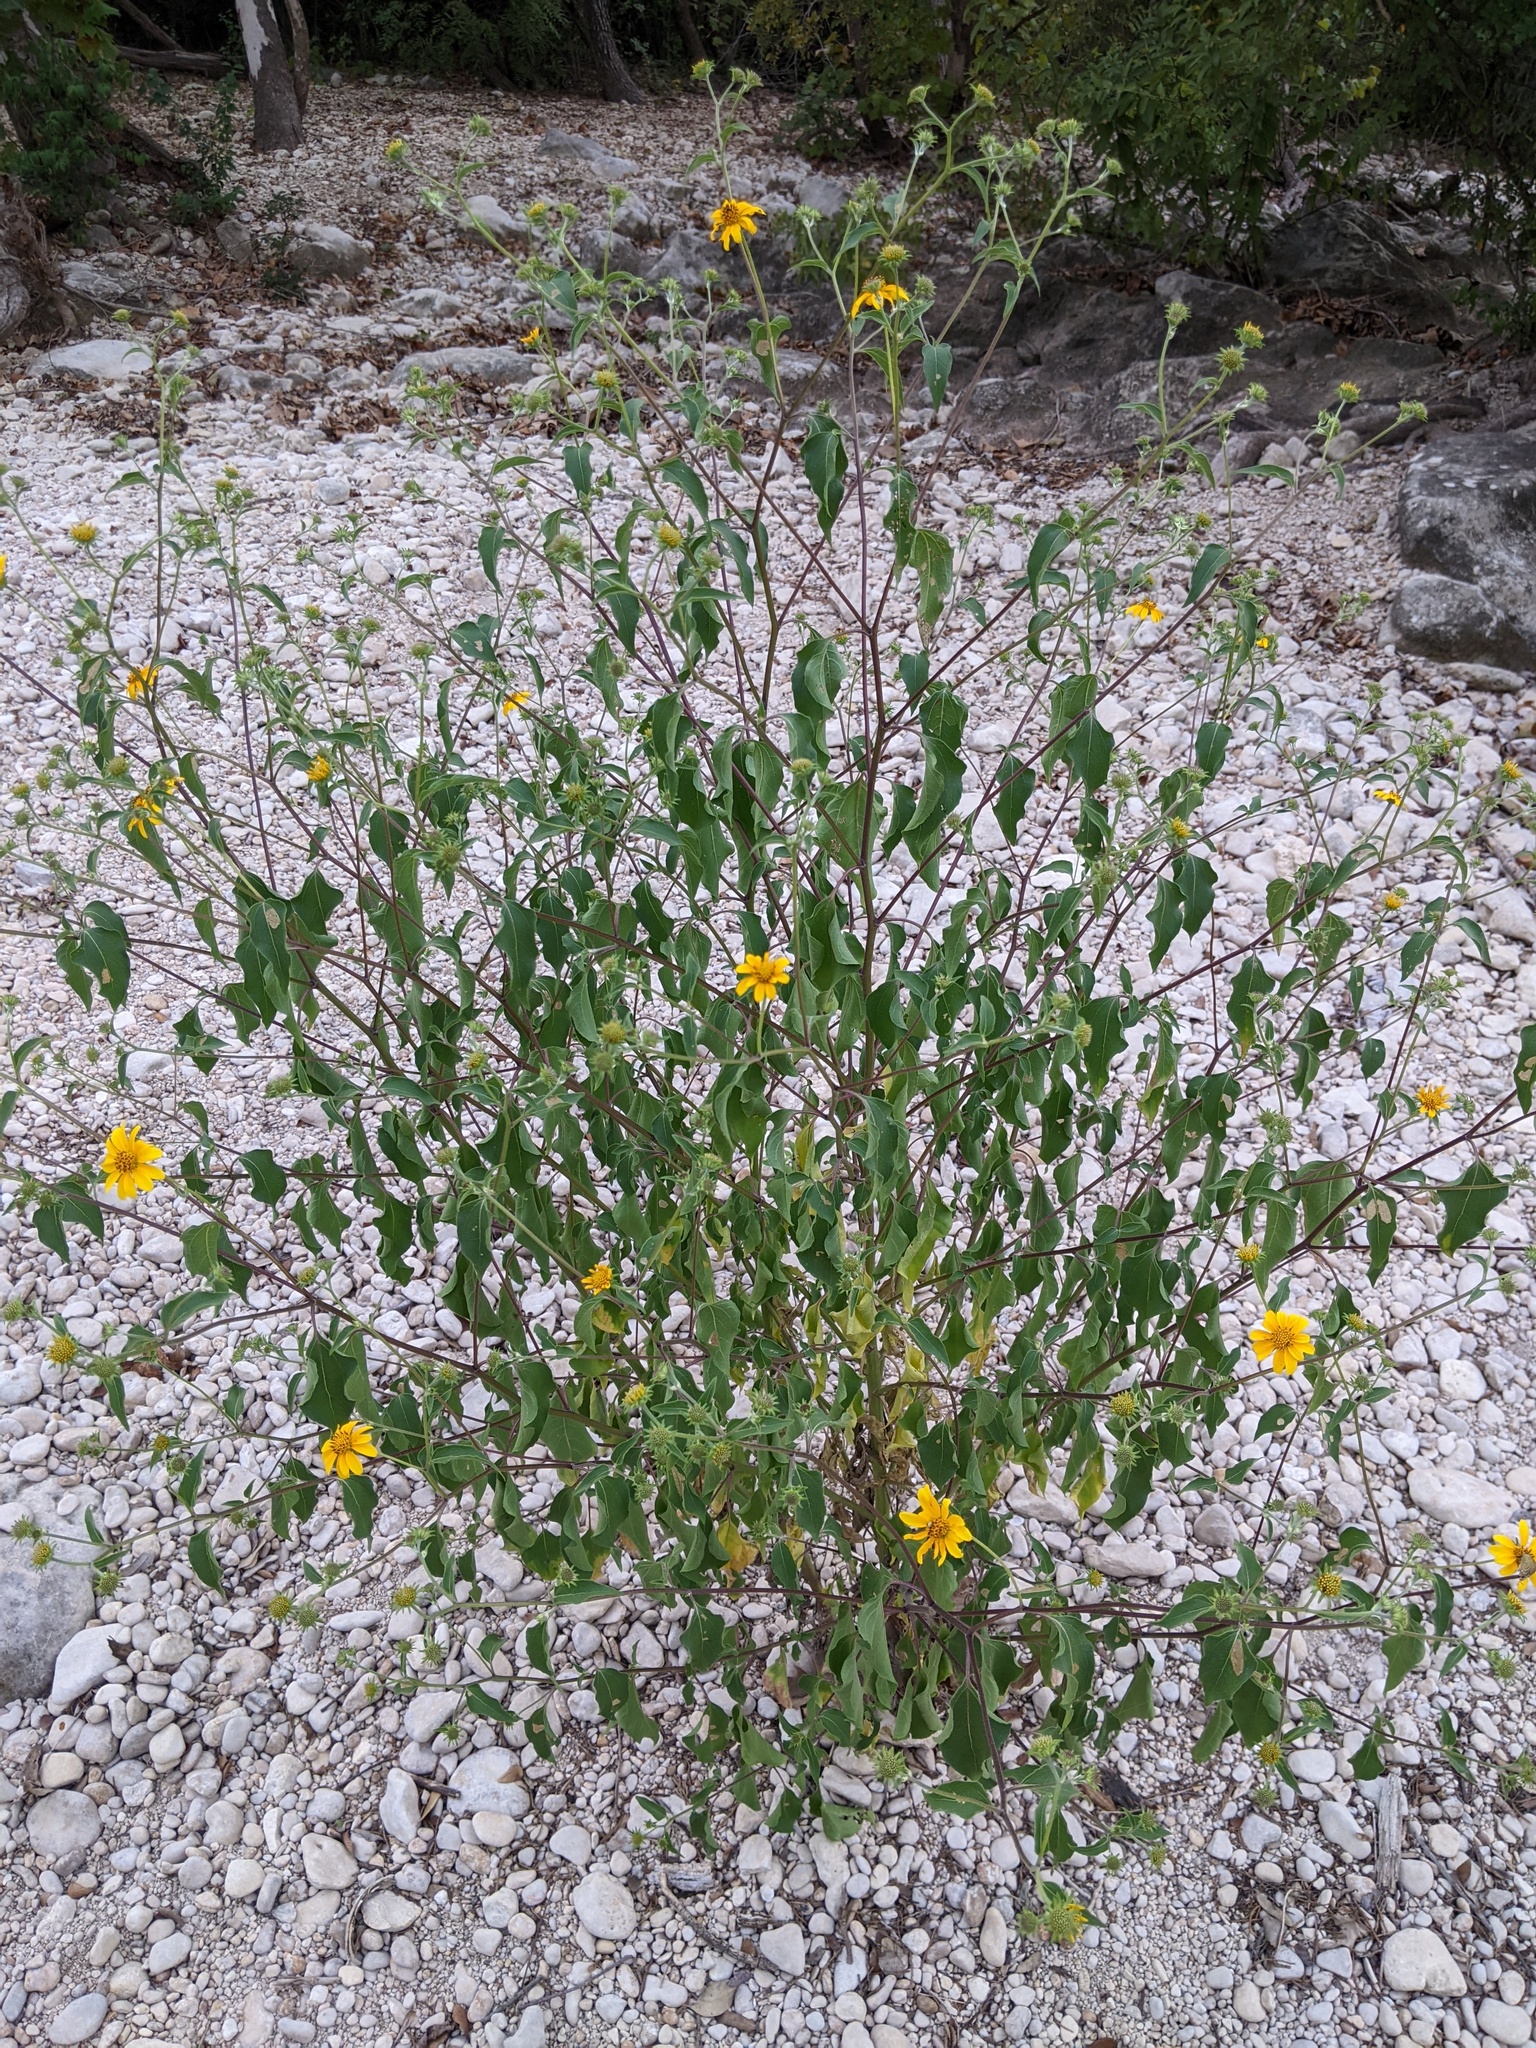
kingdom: Plantae
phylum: Tracheophyta
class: Magnoliopsida
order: Asterales
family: Asteraceae
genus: Viguiera
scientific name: Viguiera dentata
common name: Toothleaf
